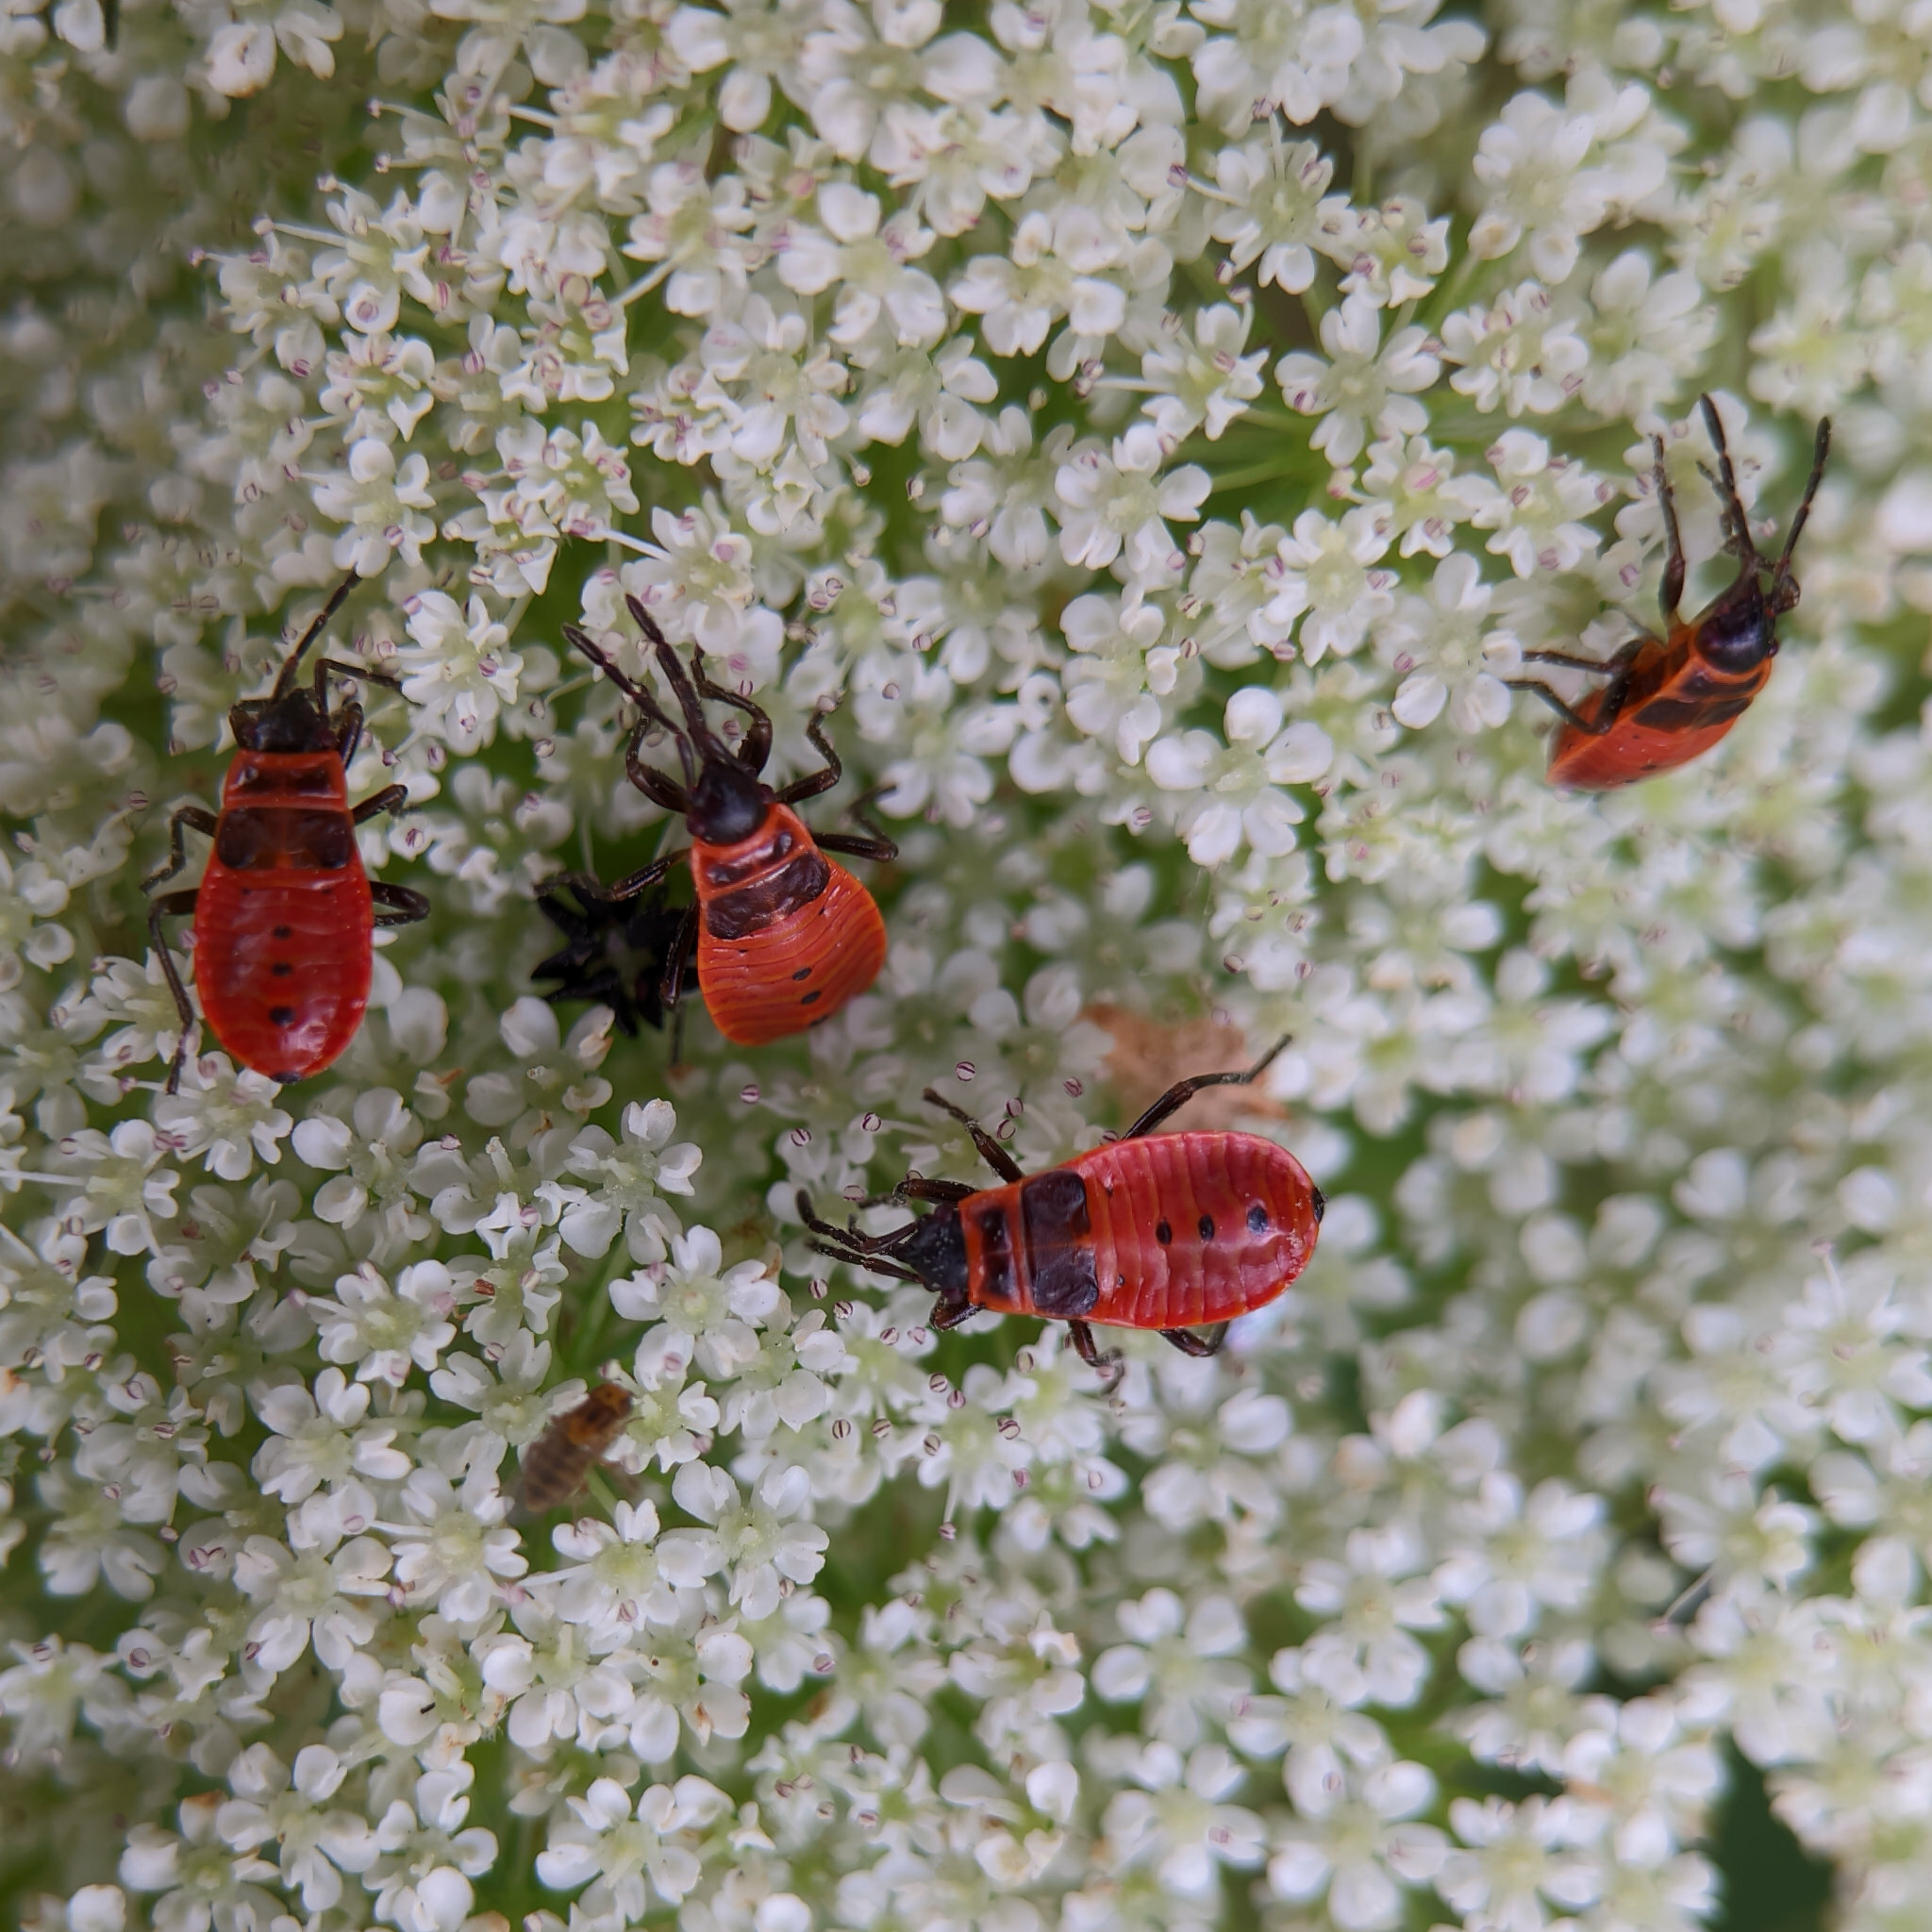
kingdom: Animalia
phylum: Arthropoda
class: Insecta
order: Hemiptera
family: Pyrrhocoridae
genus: Pyrrhocoris
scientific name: Pyrrhocoris apterus
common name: Firebug
